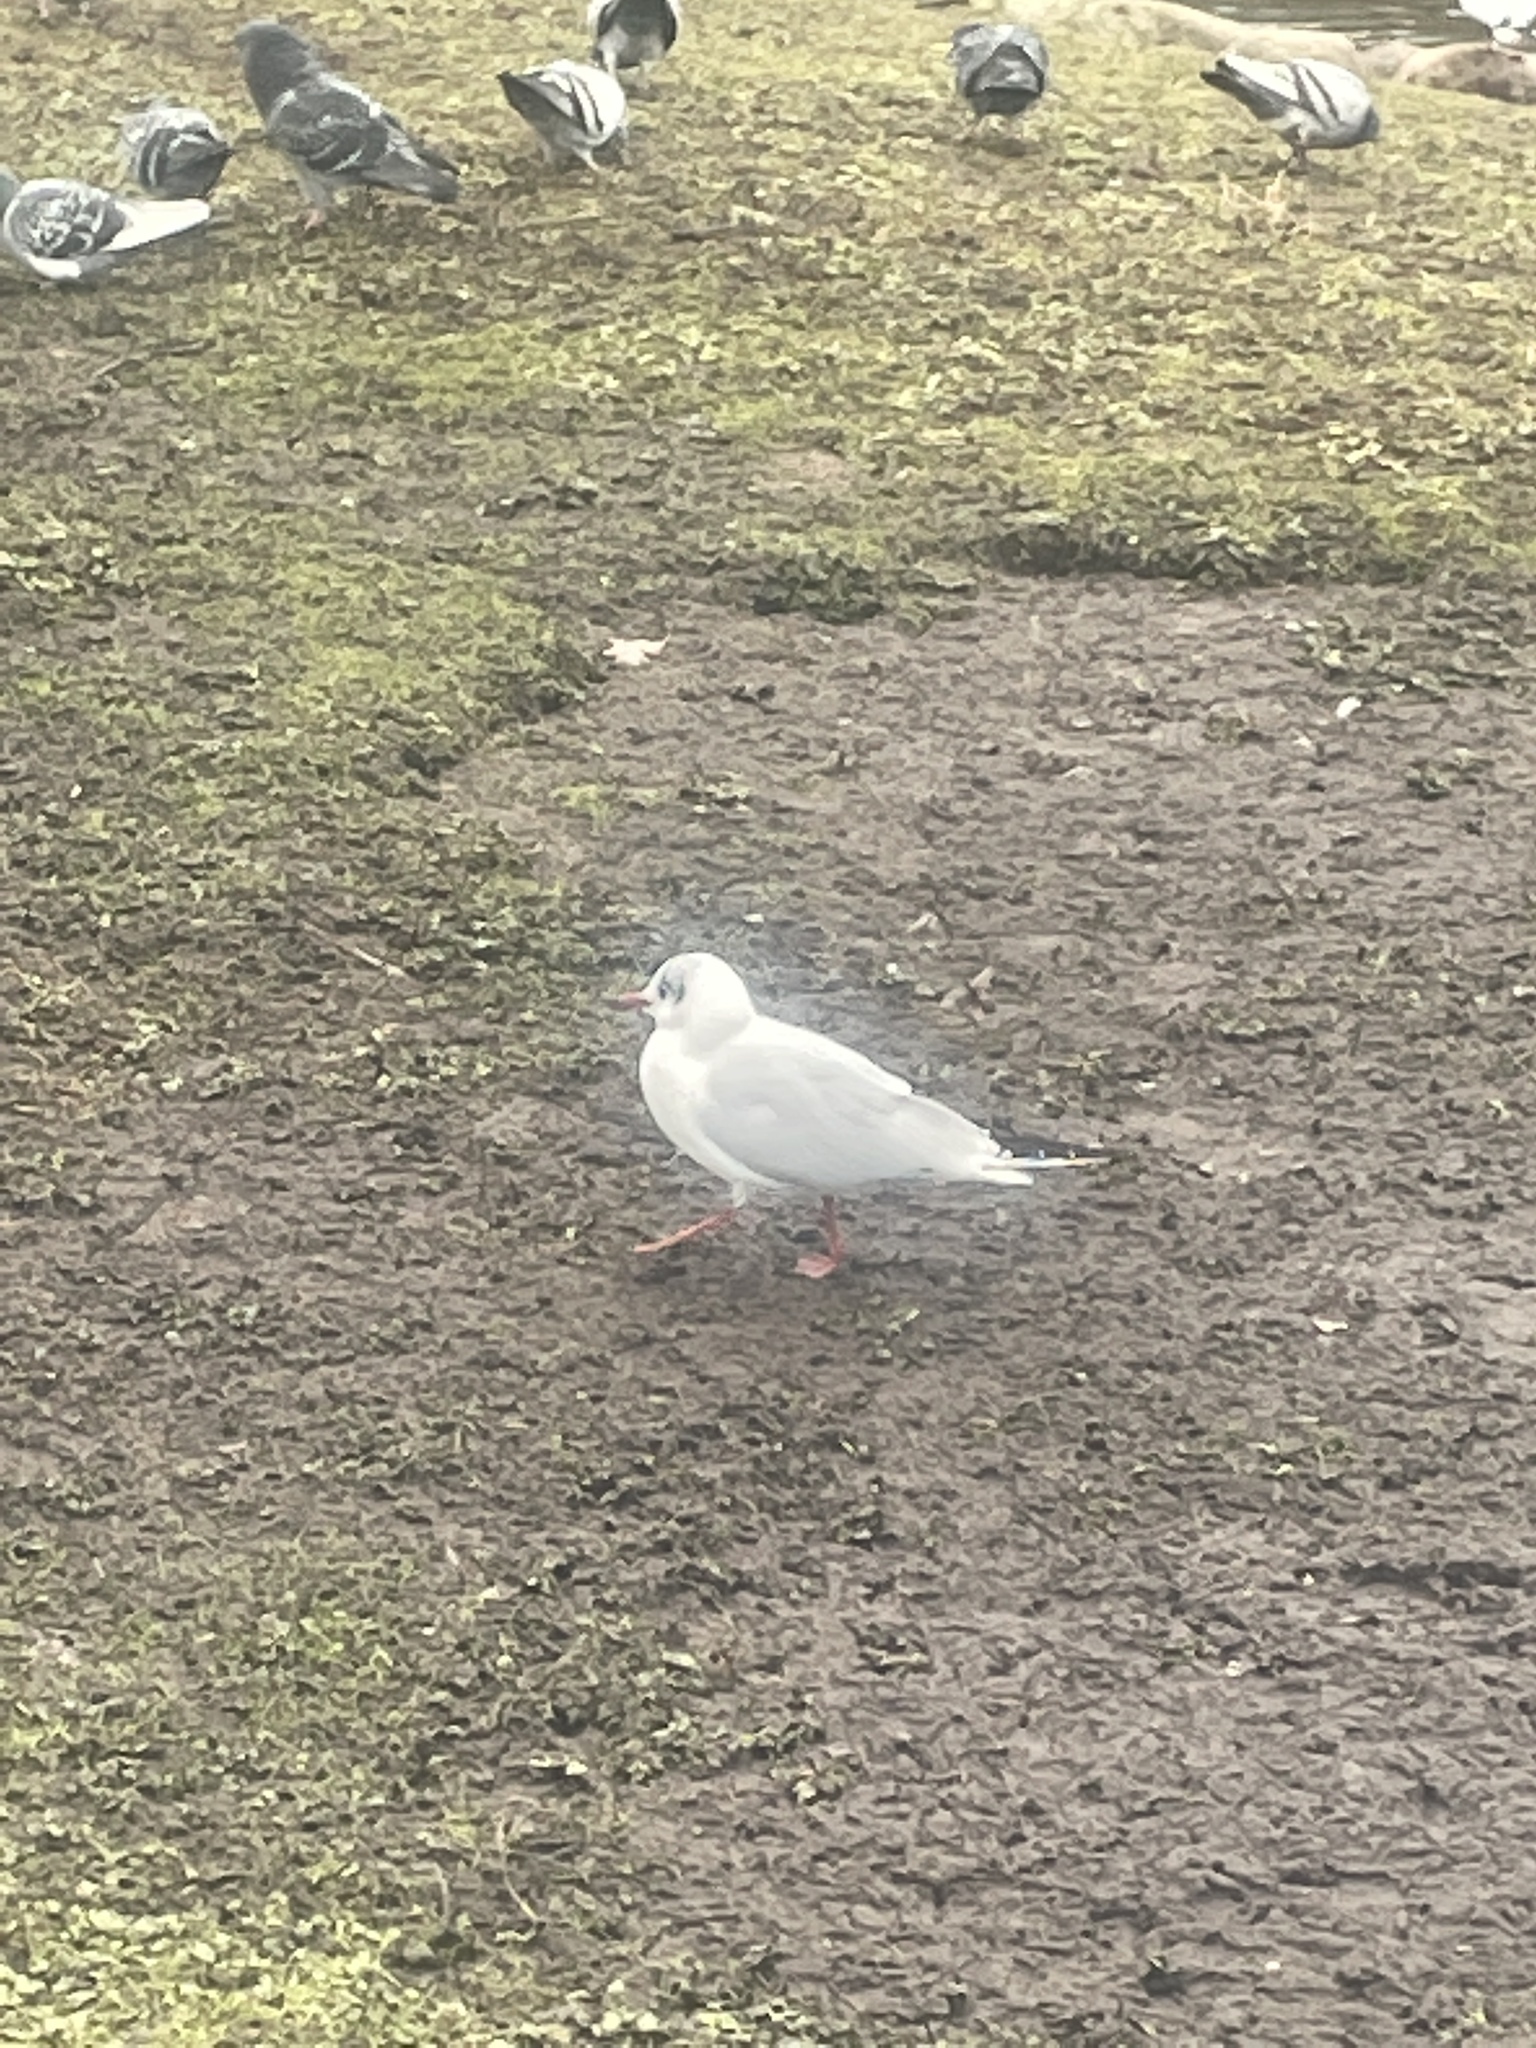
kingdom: Animalia
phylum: Chordata
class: Aves
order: Charadriiformes
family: Laridae
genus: Chroicocephalus
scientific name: Chroicocephalus ridibundus
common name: Black-headed gull
